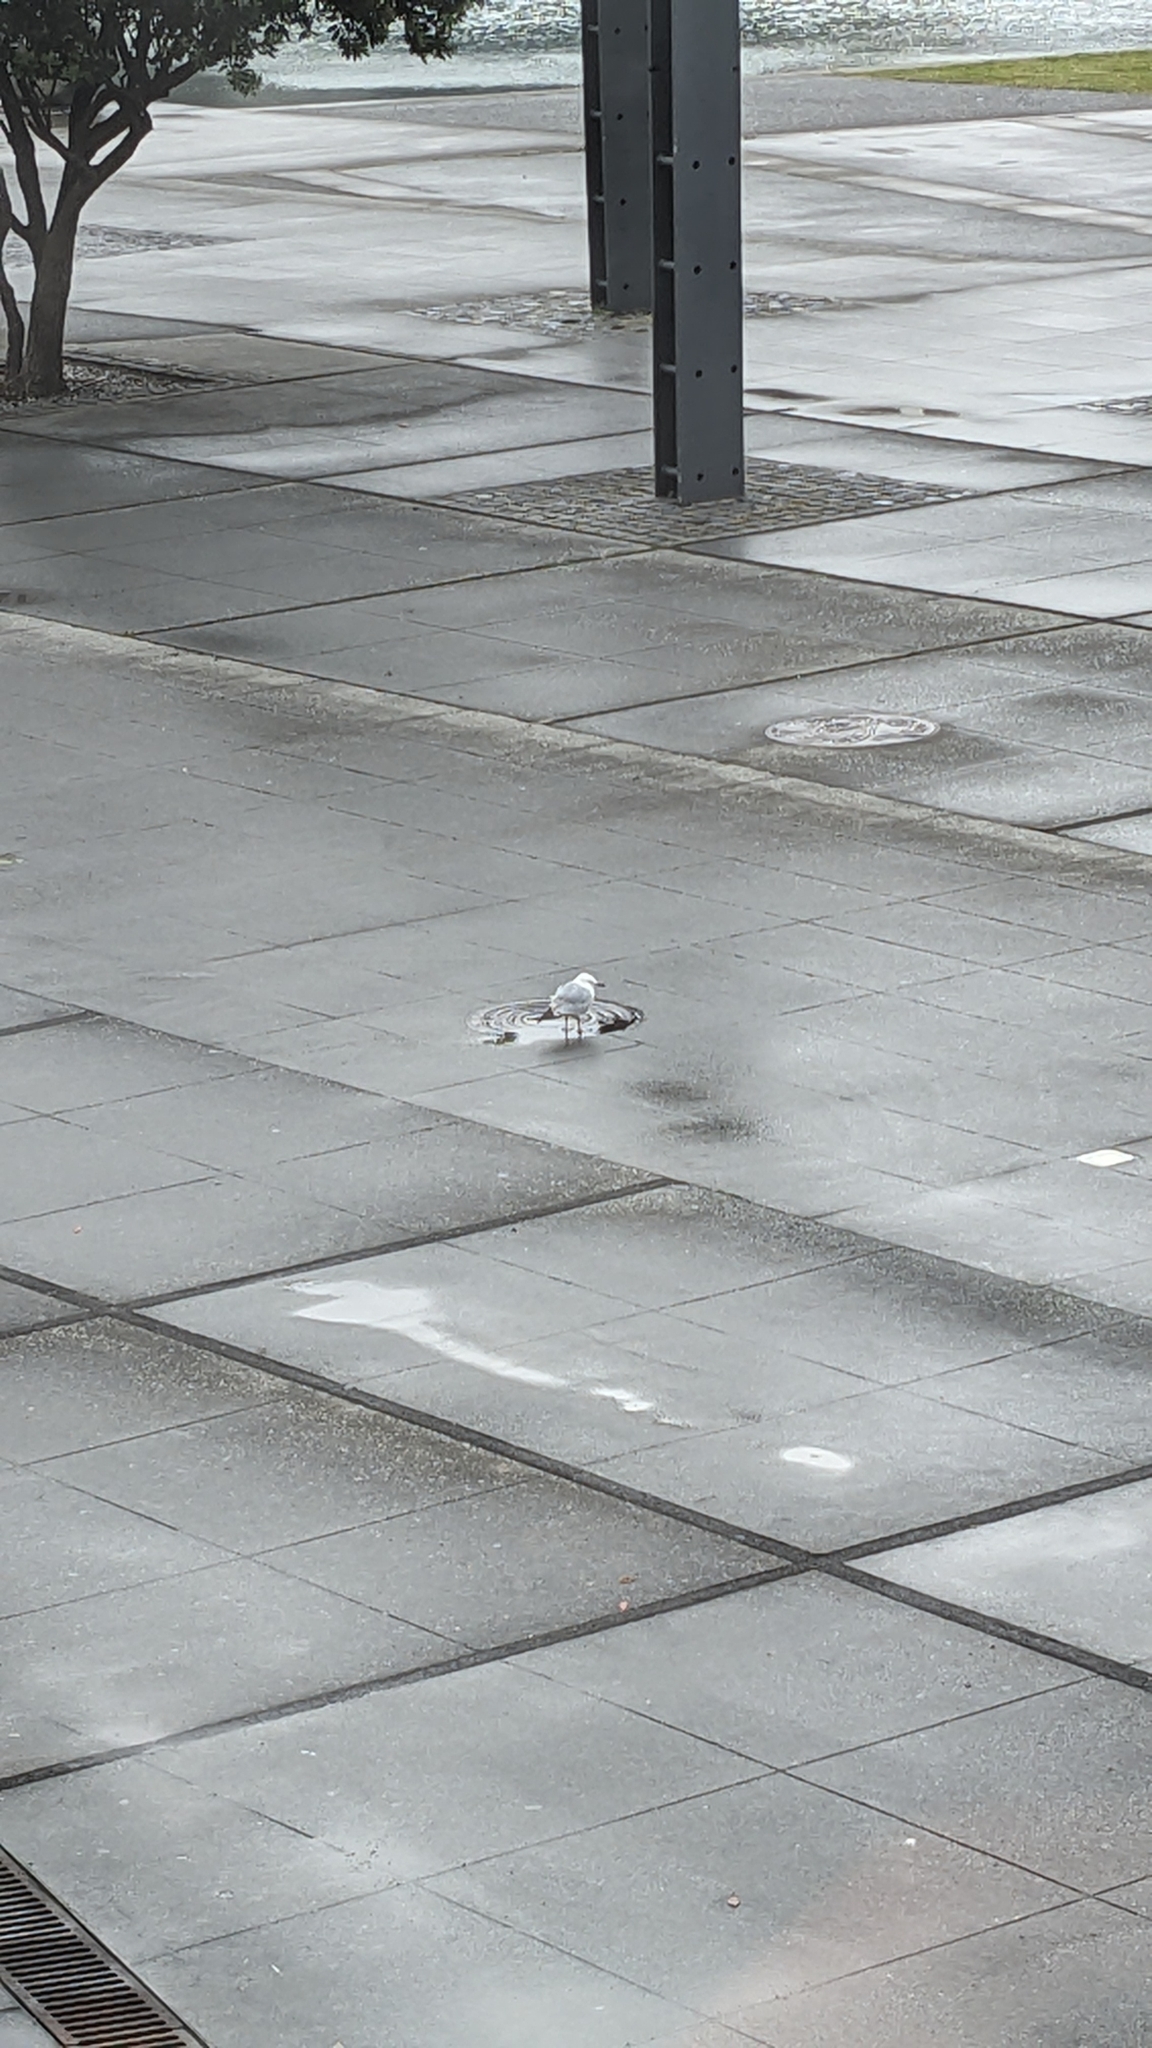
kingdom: Animalia
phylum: Chordata
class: Aves
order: Charadriiformes
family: Laridae
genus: Chroicocephalus
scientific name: Chroicocephalus novaehollandiae
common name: Silver gull
